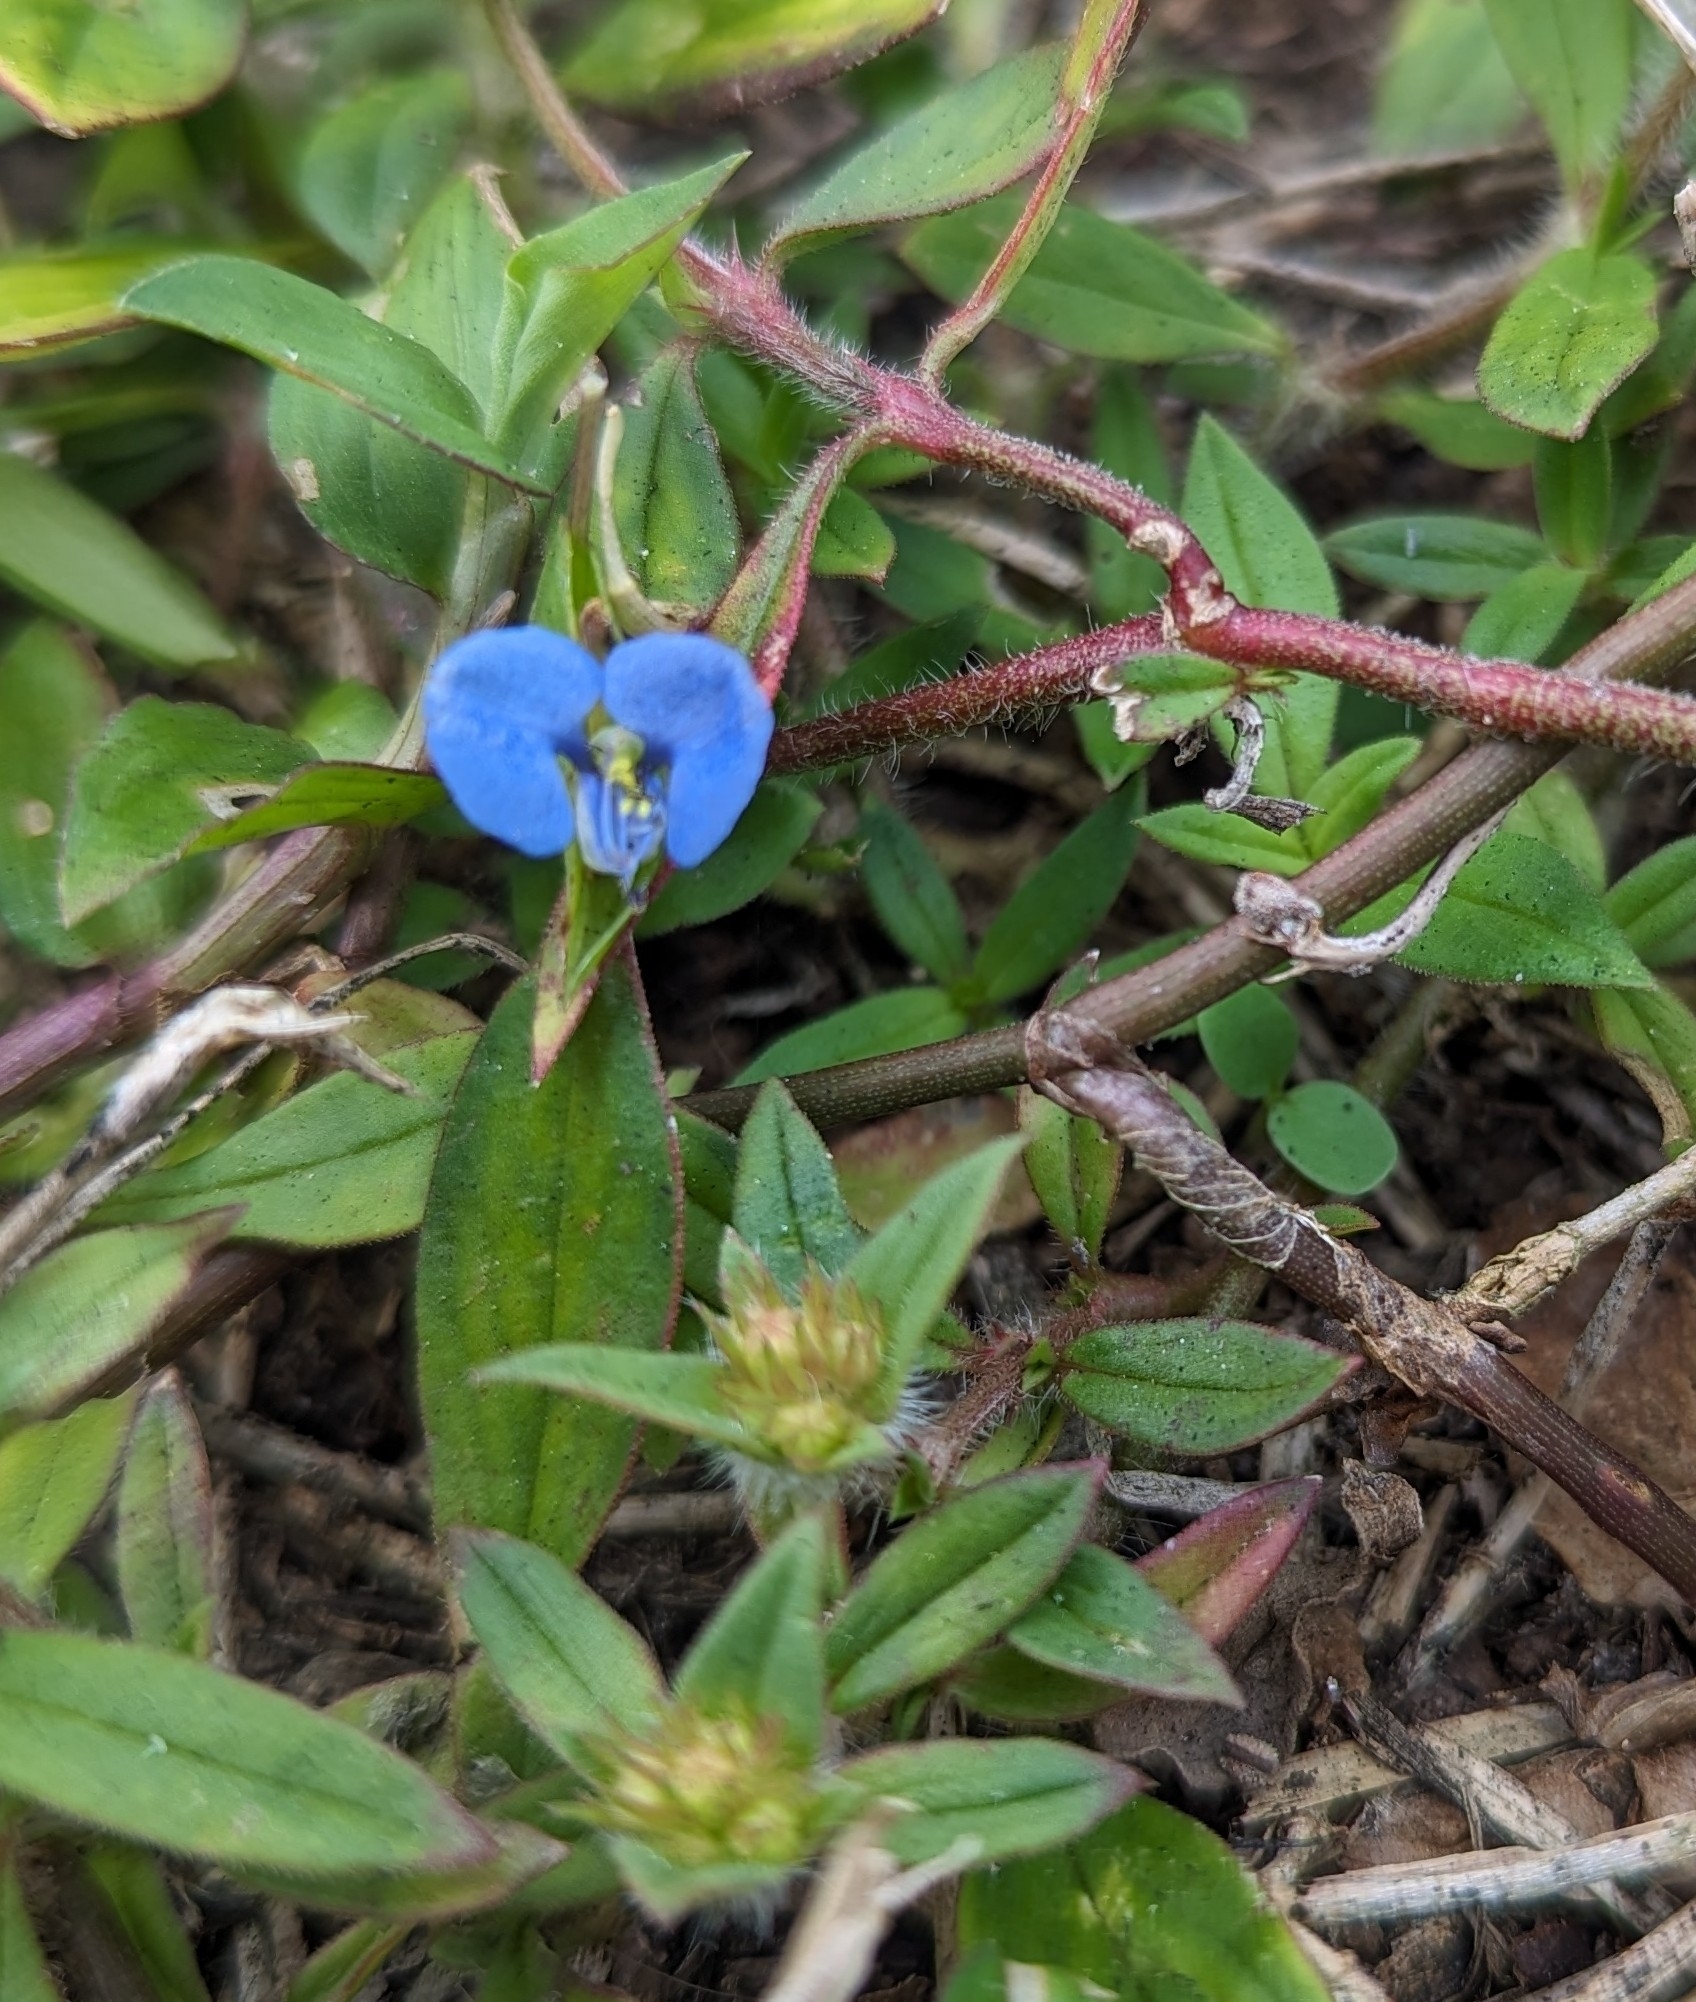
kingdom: Plantae
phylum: Tracheophyta
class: Liliopsida
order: Commelinales
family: Commelinaceae
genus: Commelina
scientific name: Commelina diffusa
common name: Climbing dayflower
